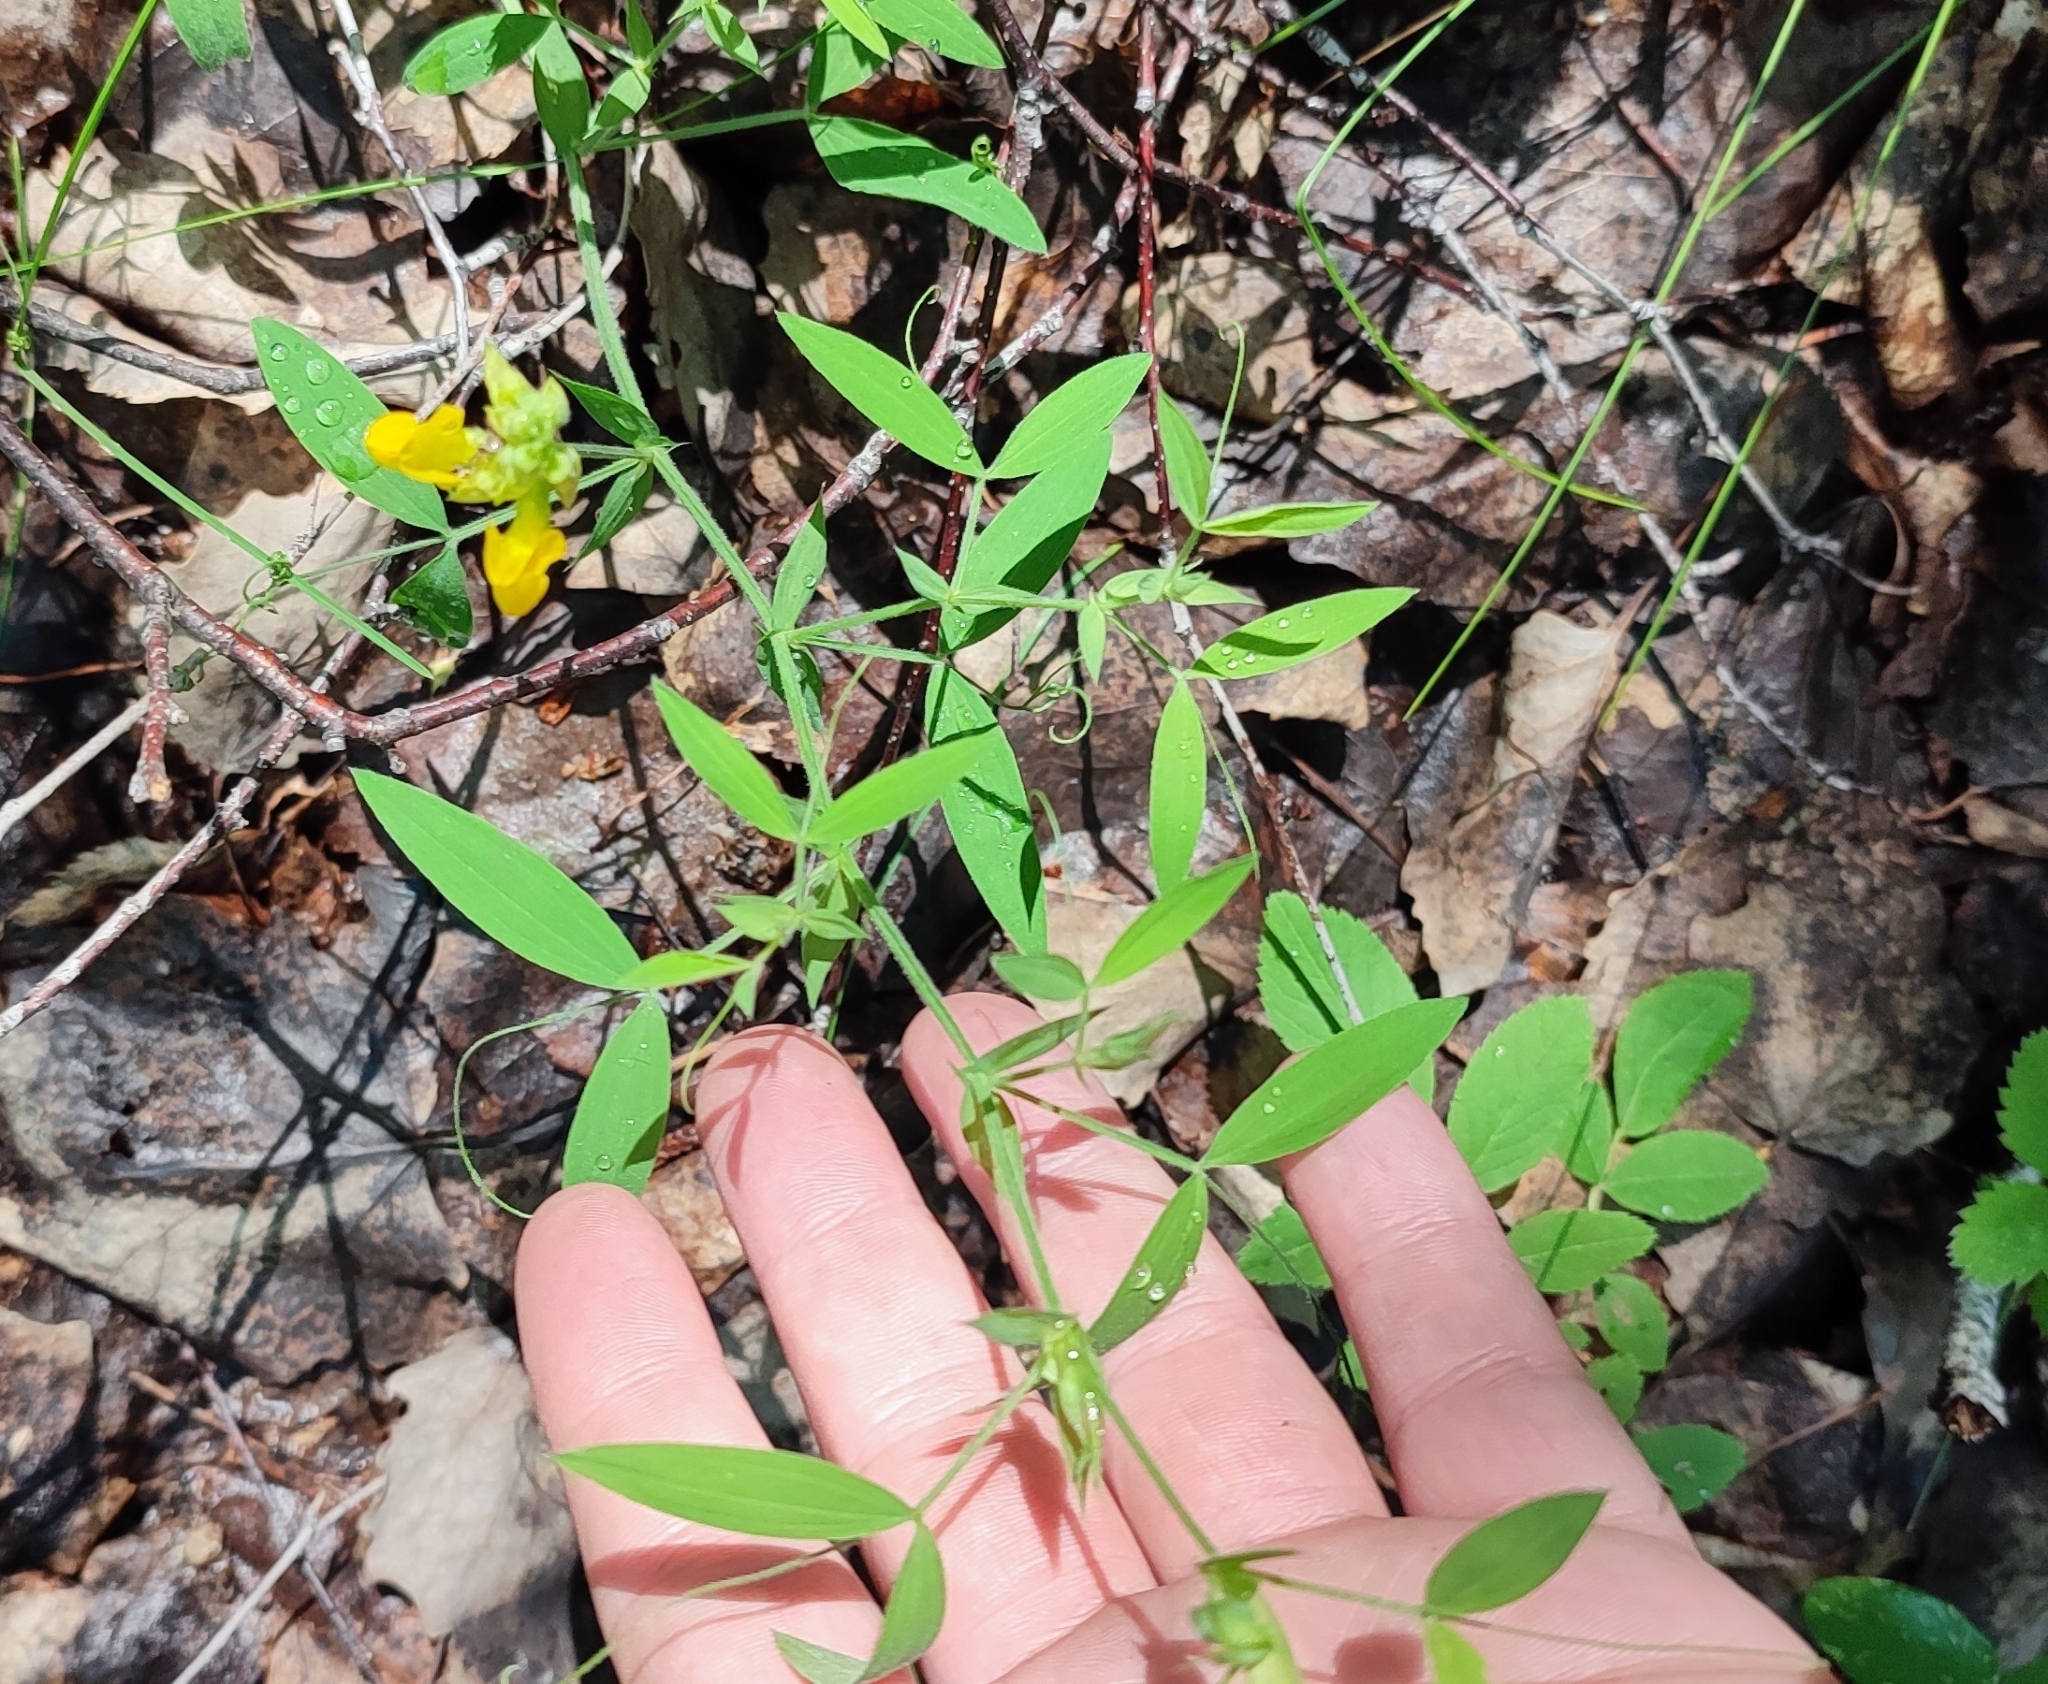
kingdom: Plantae
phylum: Tracheophyta
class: Magnoliopsida
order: Fabales
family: Fabaceae
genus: Lathyrus
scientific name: Lathyrus pratensis
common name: Meadow vetchling
